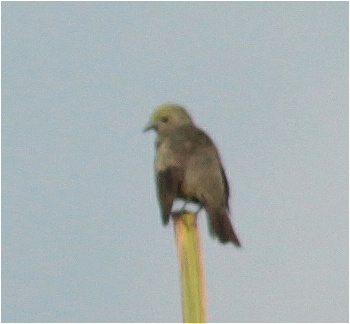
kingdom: Animalia
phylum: Chordata
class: Aves
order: Passeriformes
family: Thraupidae
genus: Thraupis
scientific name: Thraupis palmarum
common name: Palm tanager
